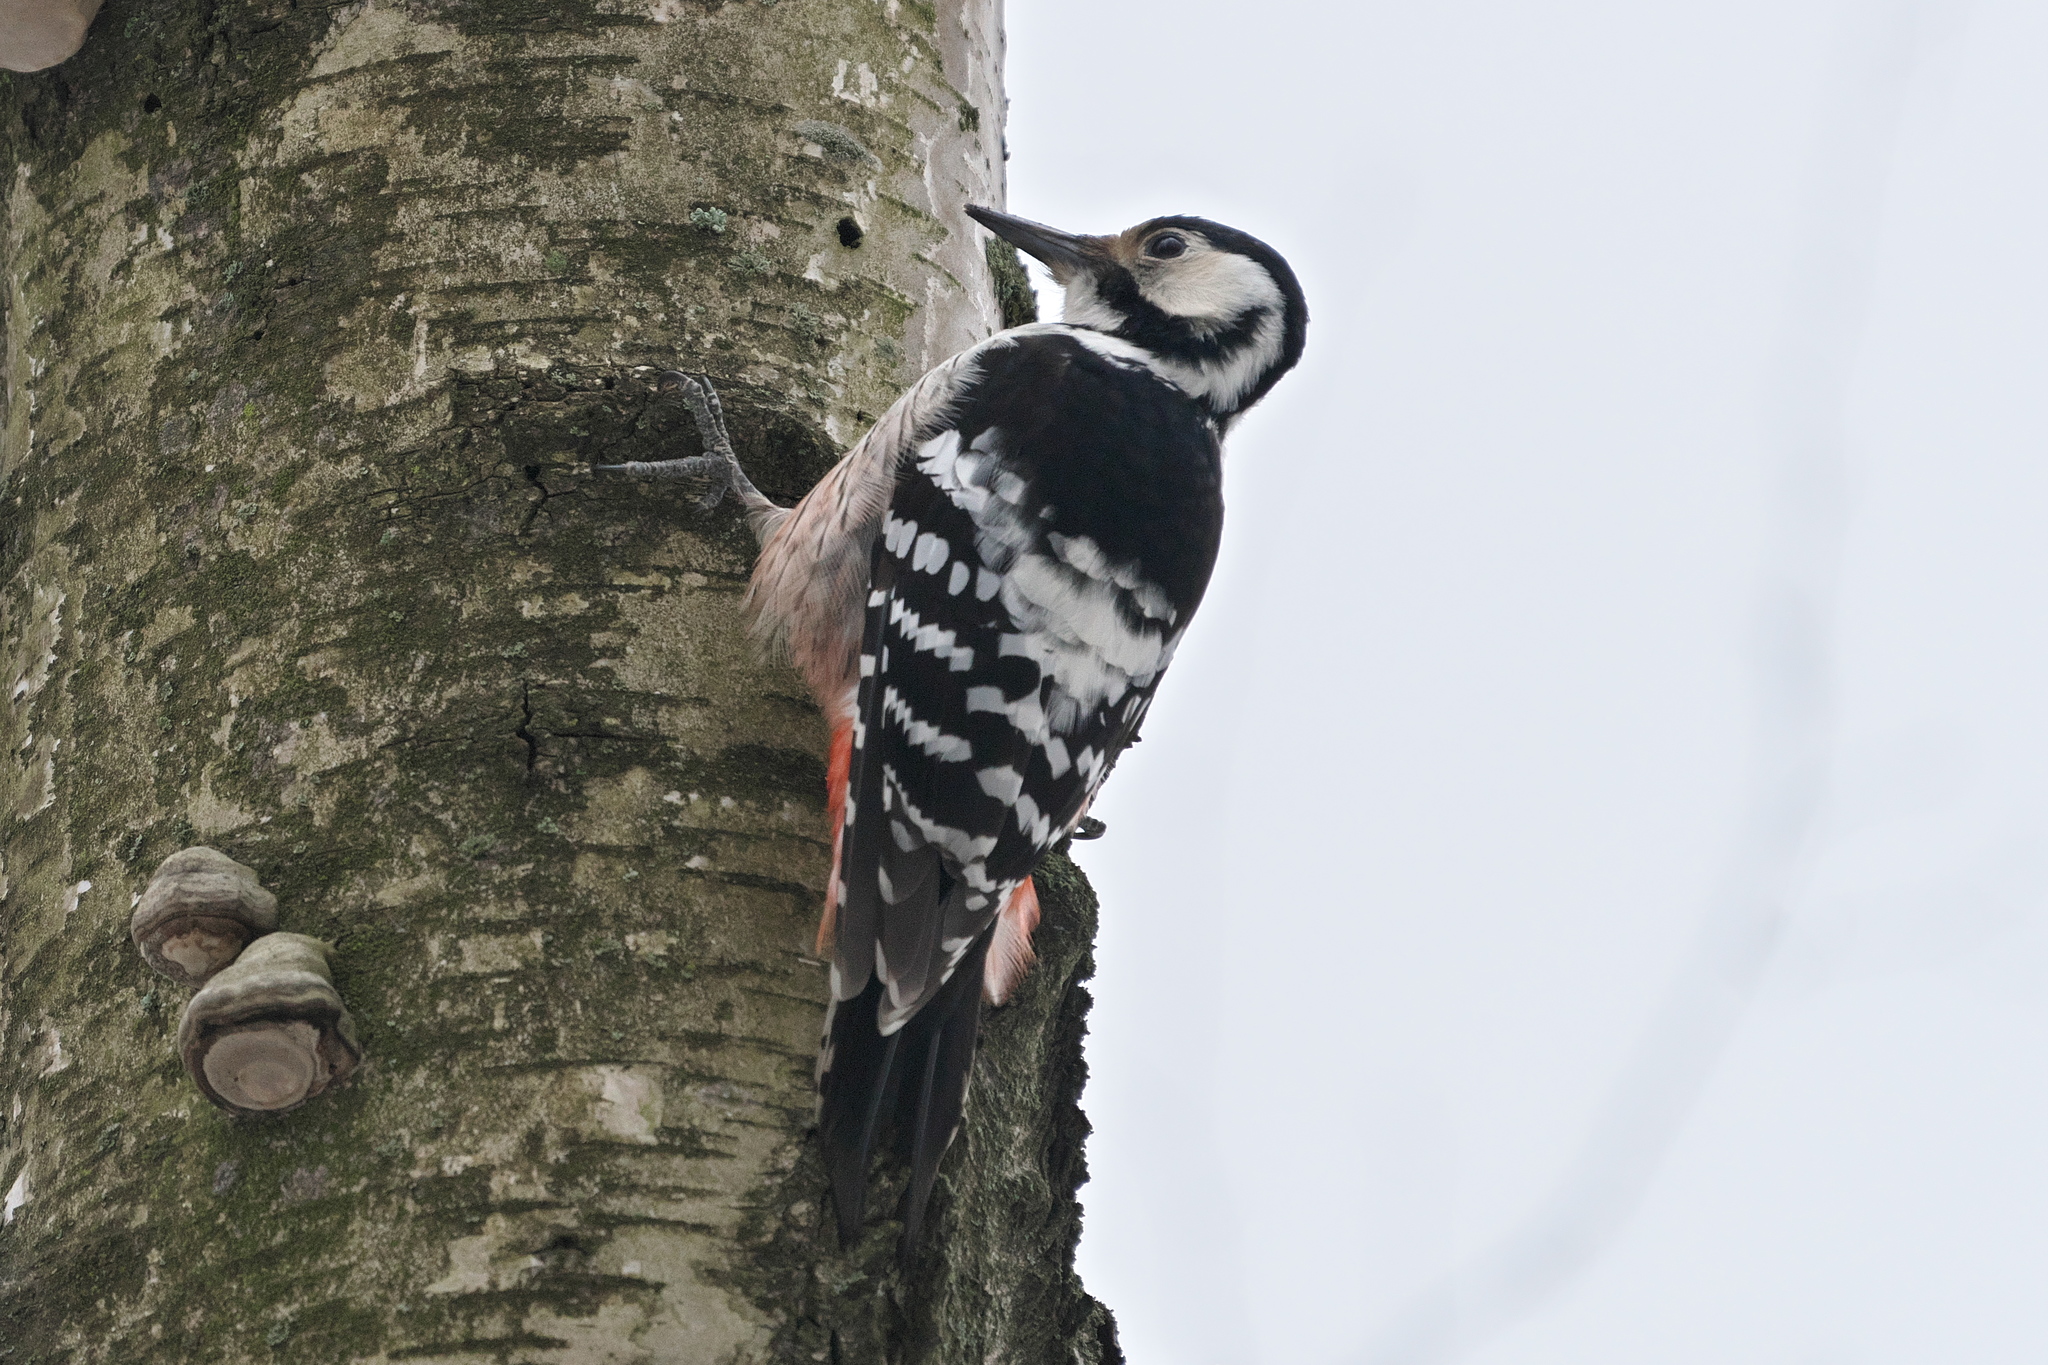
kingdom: Animalia
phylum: Chordata
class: Aves
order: Piciformes
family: Picidae
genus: Dendrocopos
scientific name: Dendrocopos leucotos
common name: White-backed woodpecker
